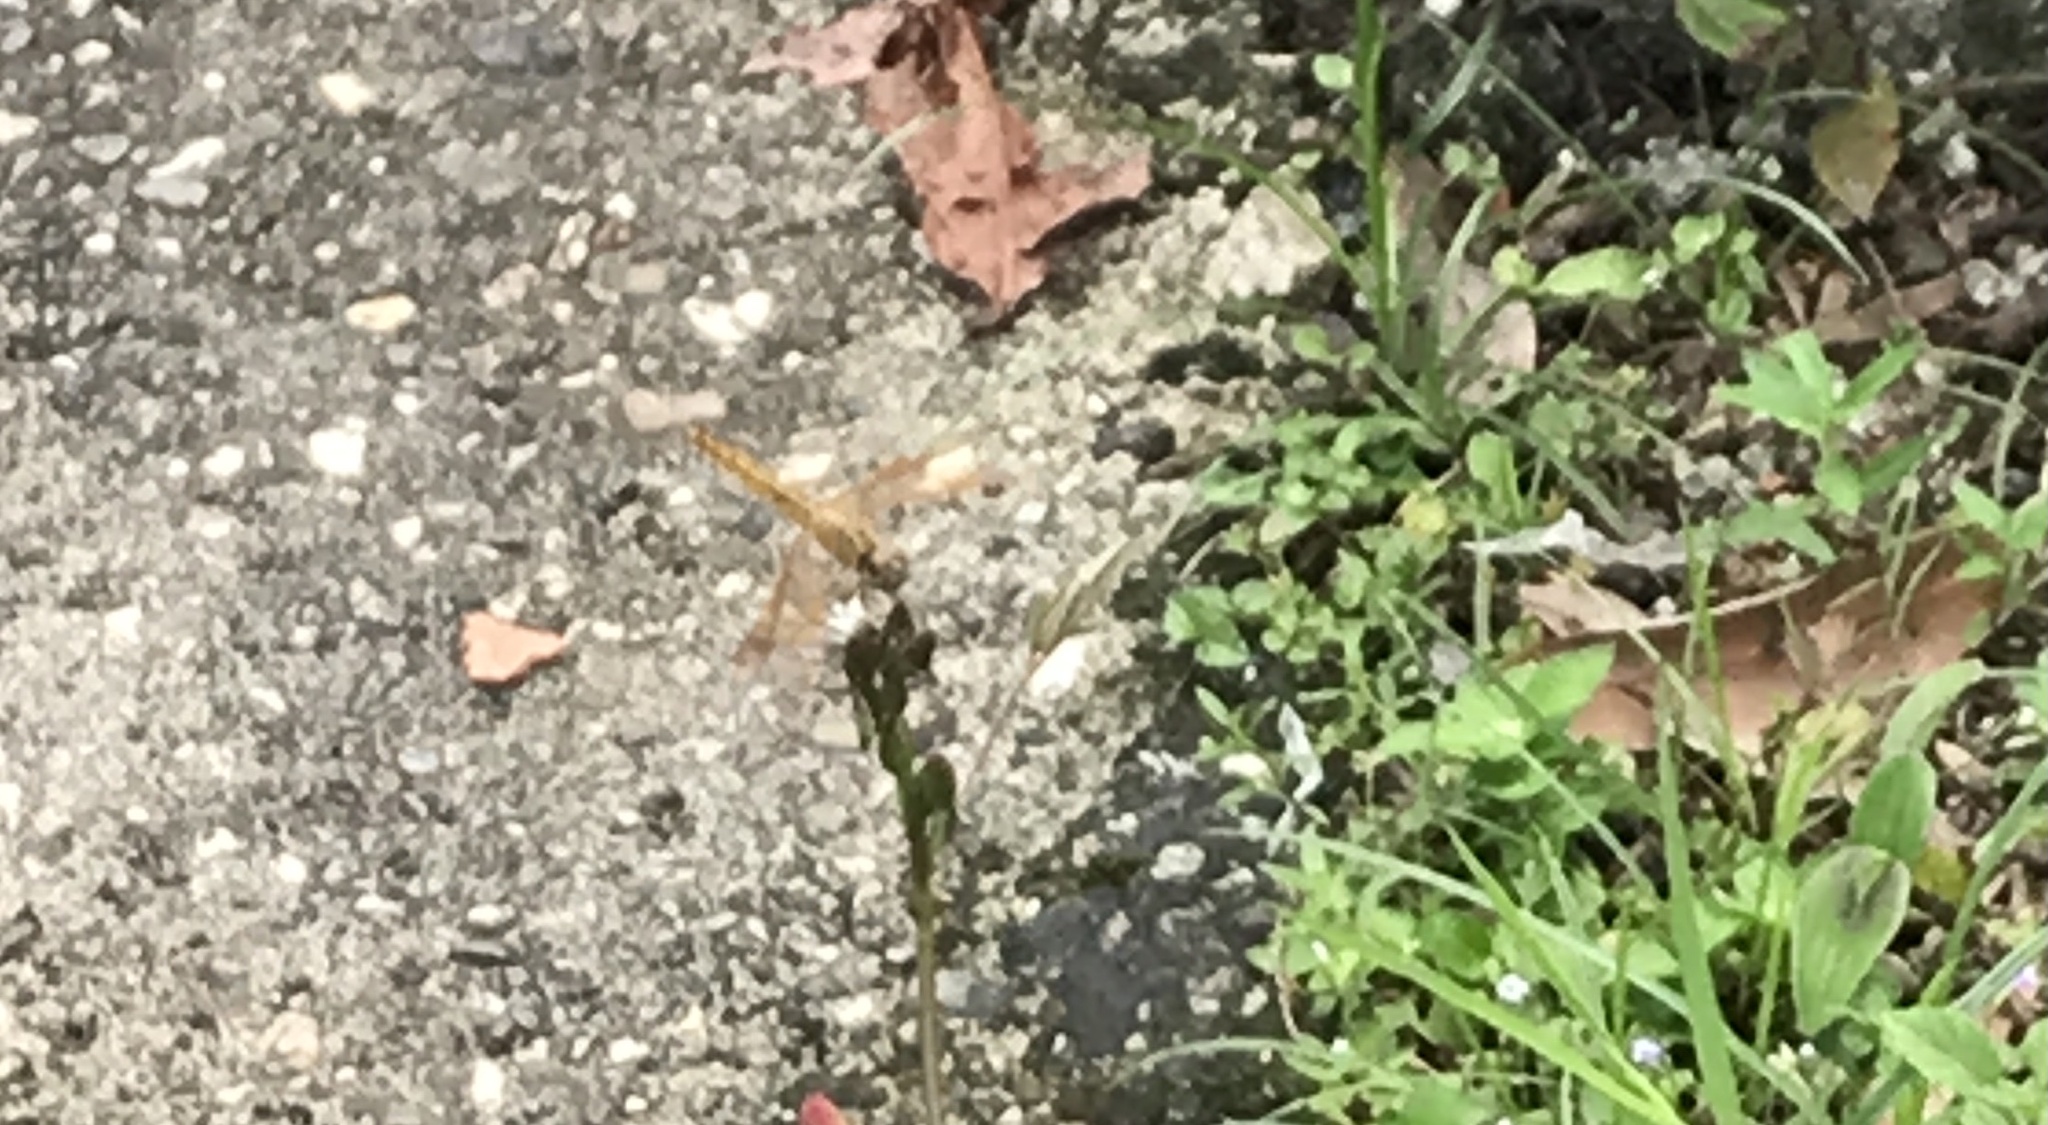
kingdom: Animalia
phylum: Arthropoda
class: Insecta
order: Odonata
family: Libellulidae
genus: Brachythemis
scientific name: Brachythemis contaminata
